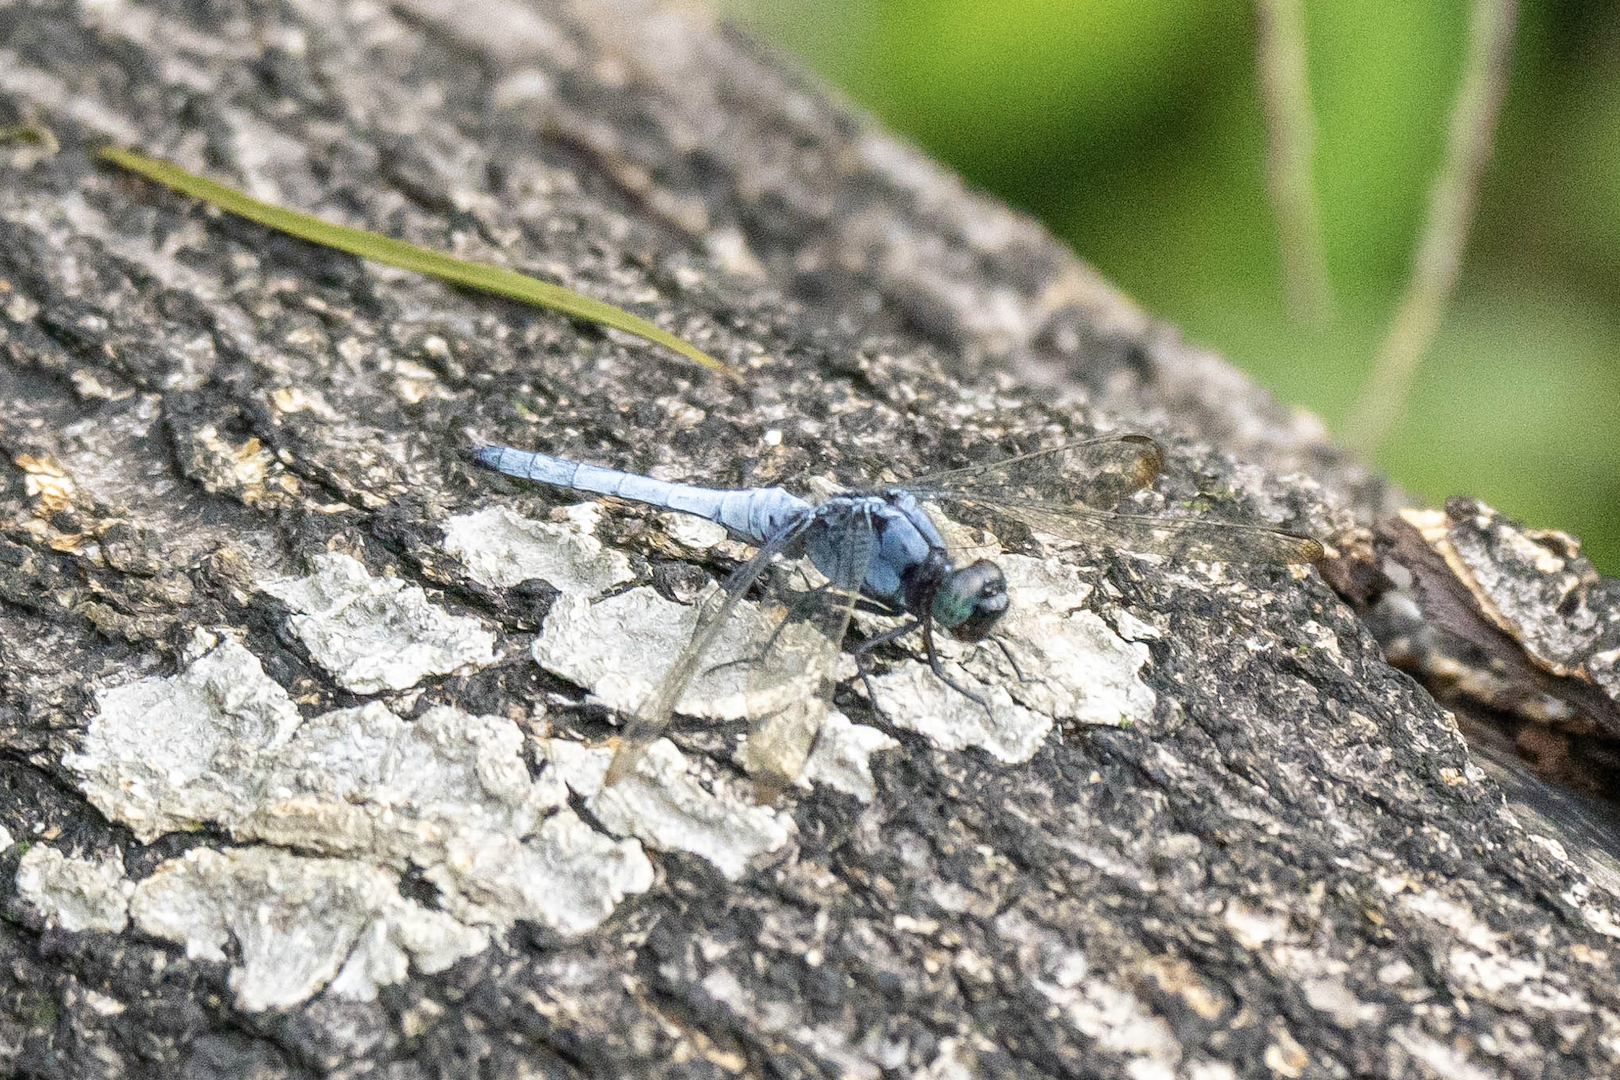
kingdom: Animalia
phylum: Arthropoda
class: Insecta
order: Odonata
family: Libellulidae
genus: Orthetrum
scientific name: Orthetrum luzonicum
